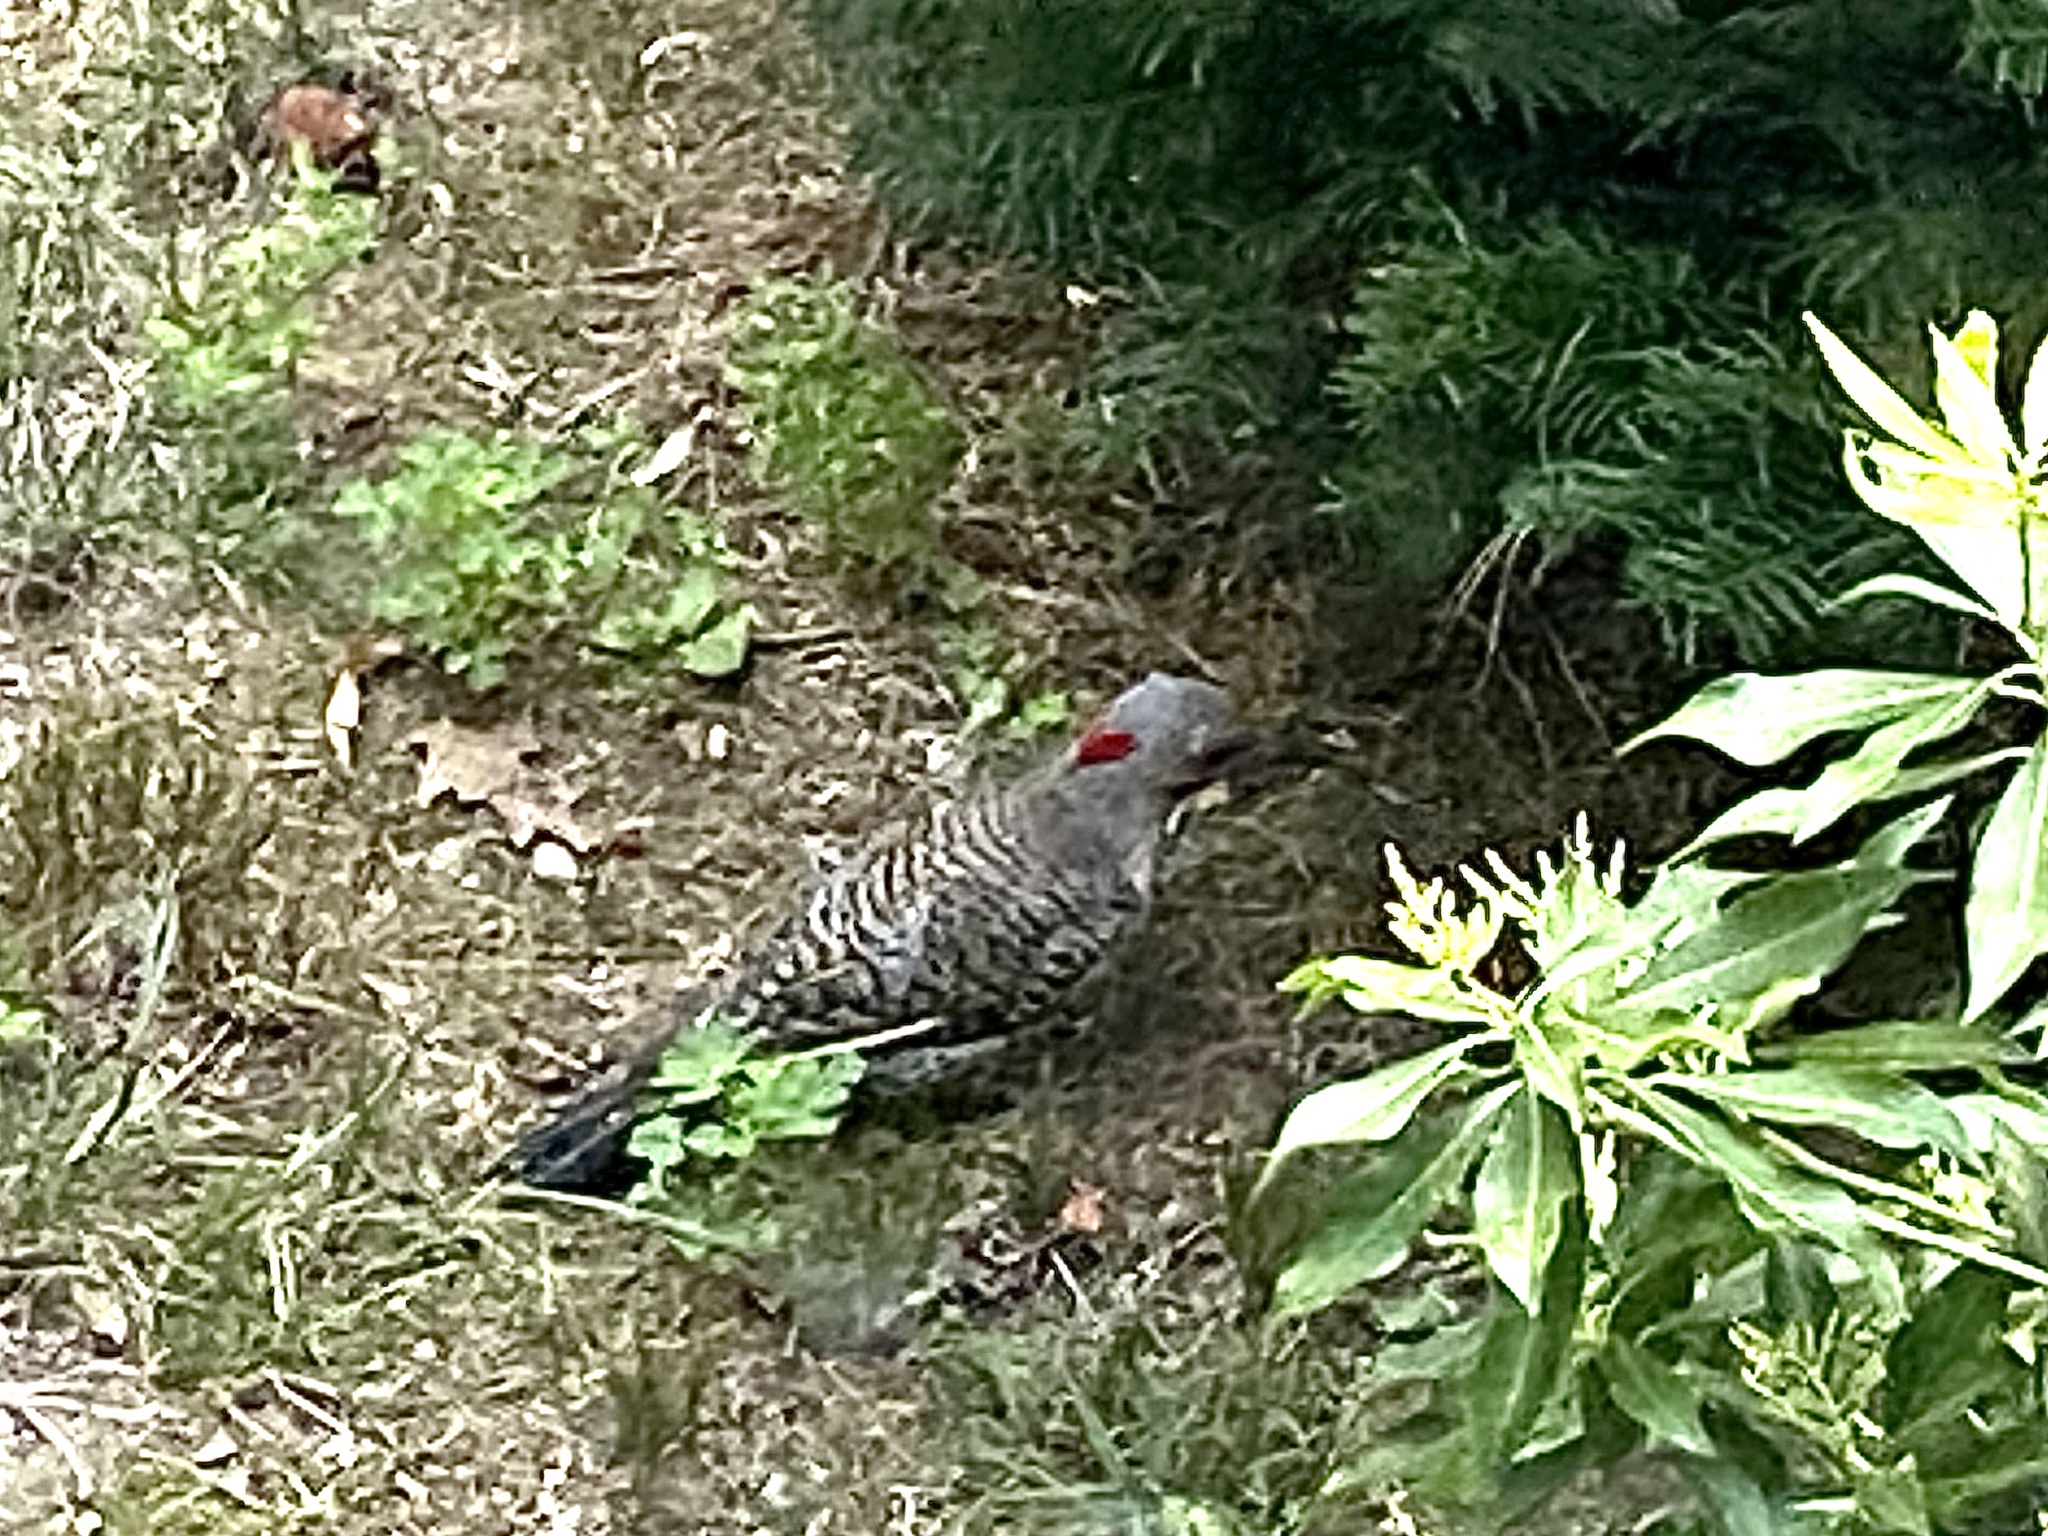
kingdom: Animalia
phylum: Chordata
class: Aves
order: Piciformes
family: Picidae
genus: Colaptes
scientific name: Colaptes auratus
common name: Northern flicker
